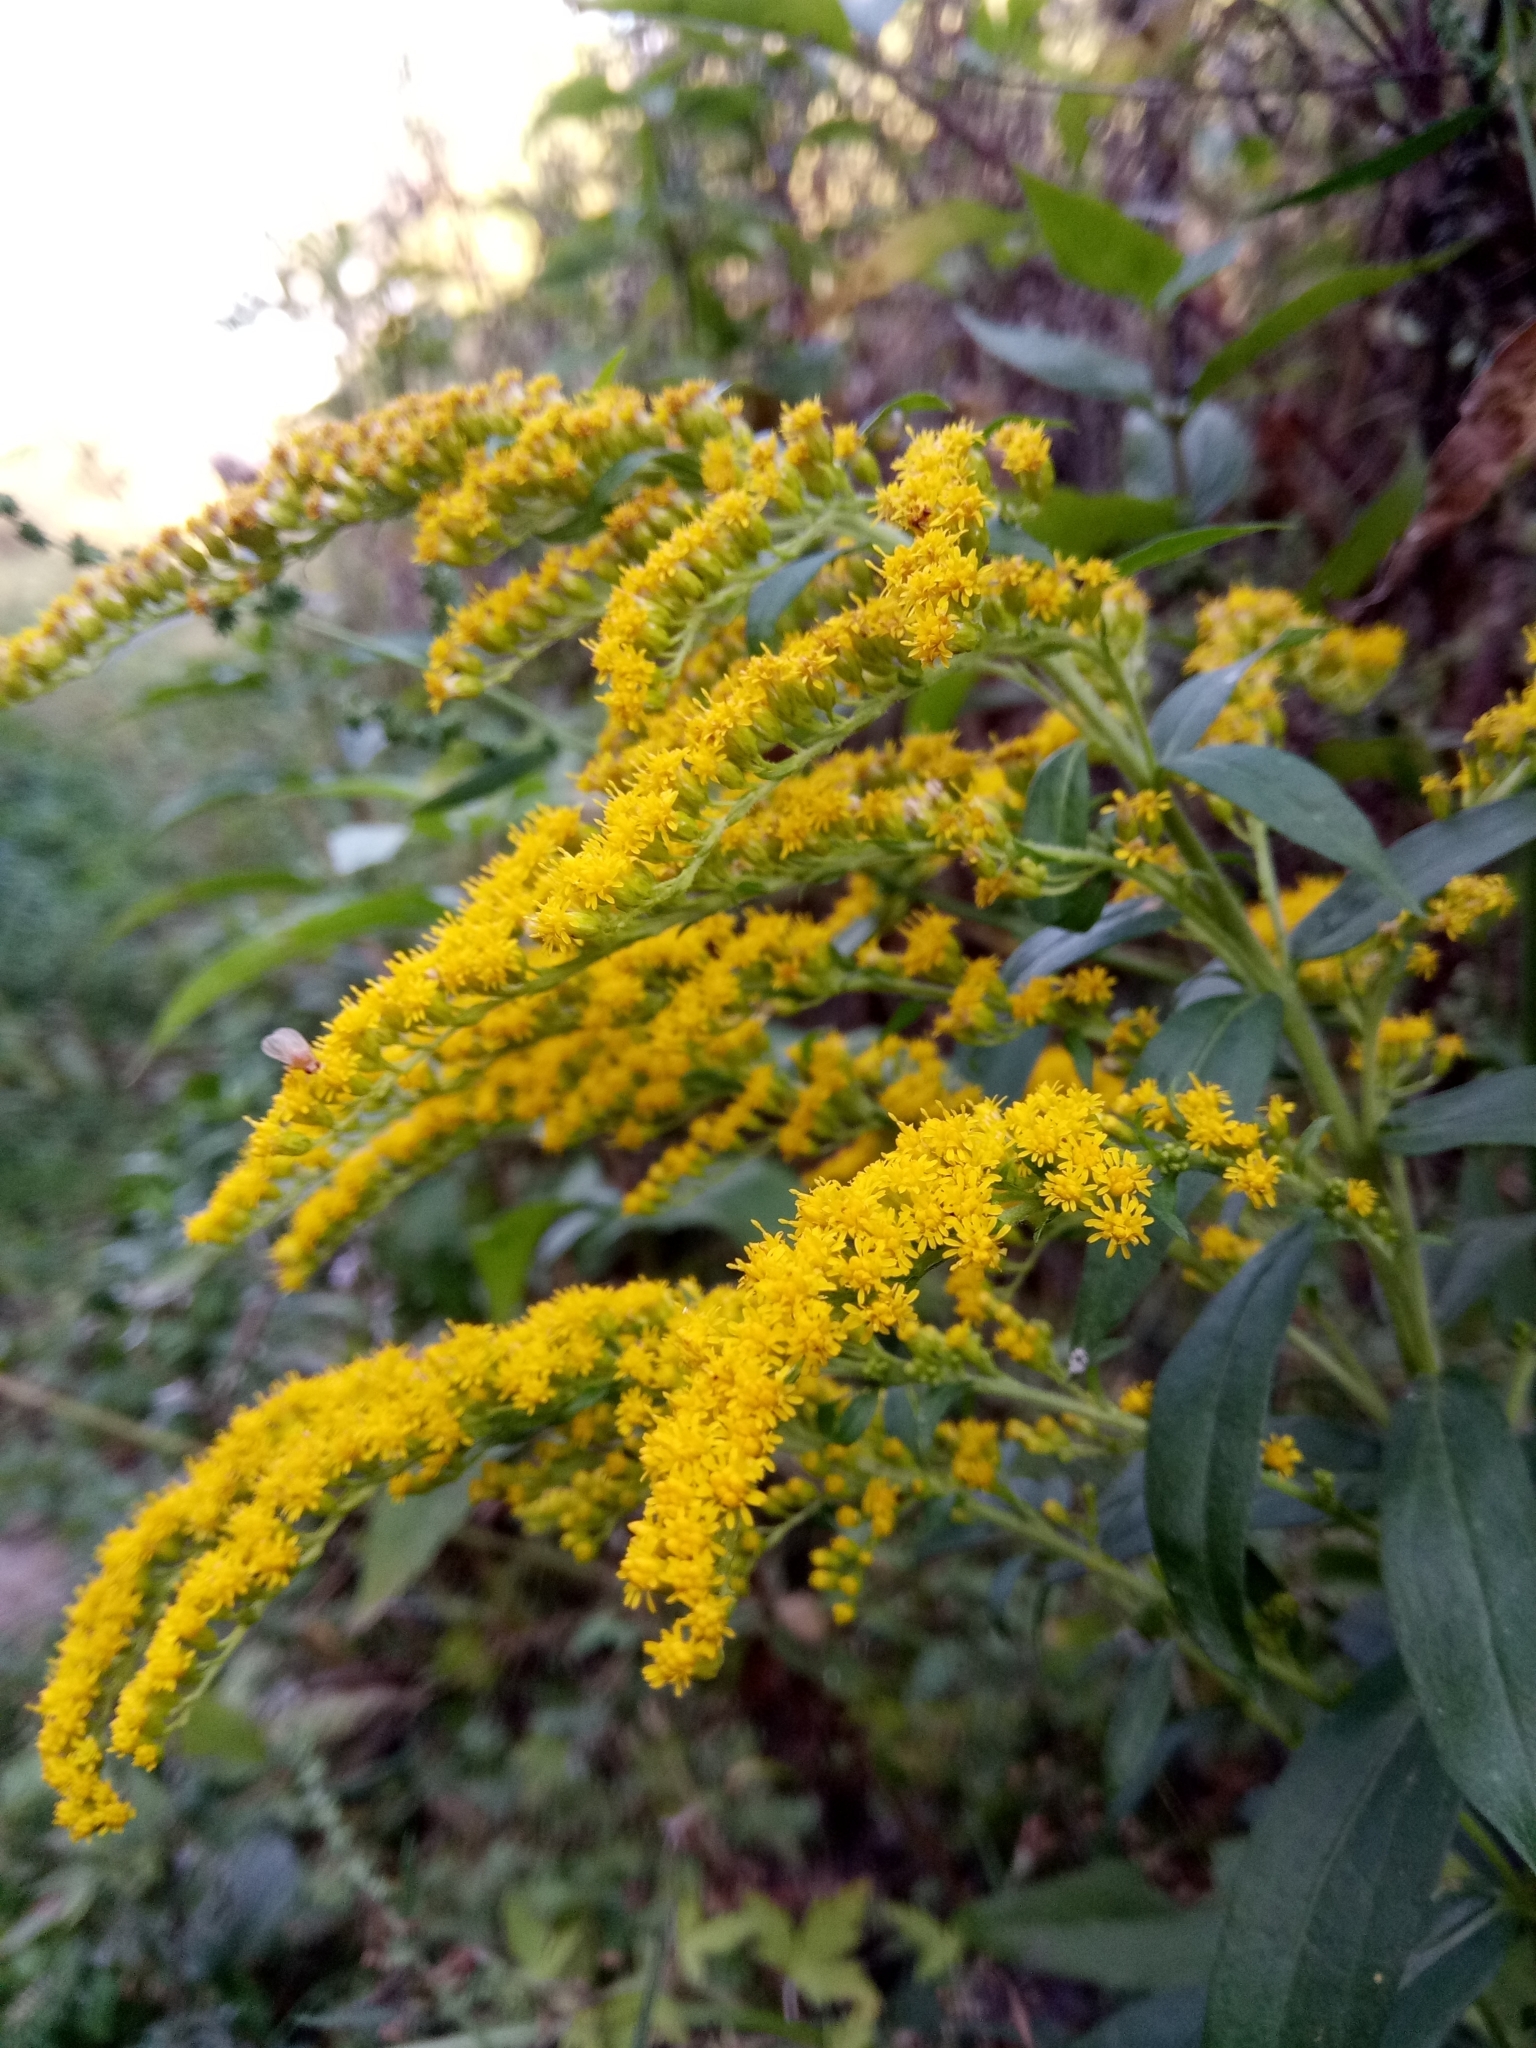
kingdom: Plantae
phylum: Tracheophyta
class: Magnoliopsida
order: Asterales
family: Asteraceae
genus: Solidago
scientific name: Solidago canadensis
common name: Canada goldenrod
